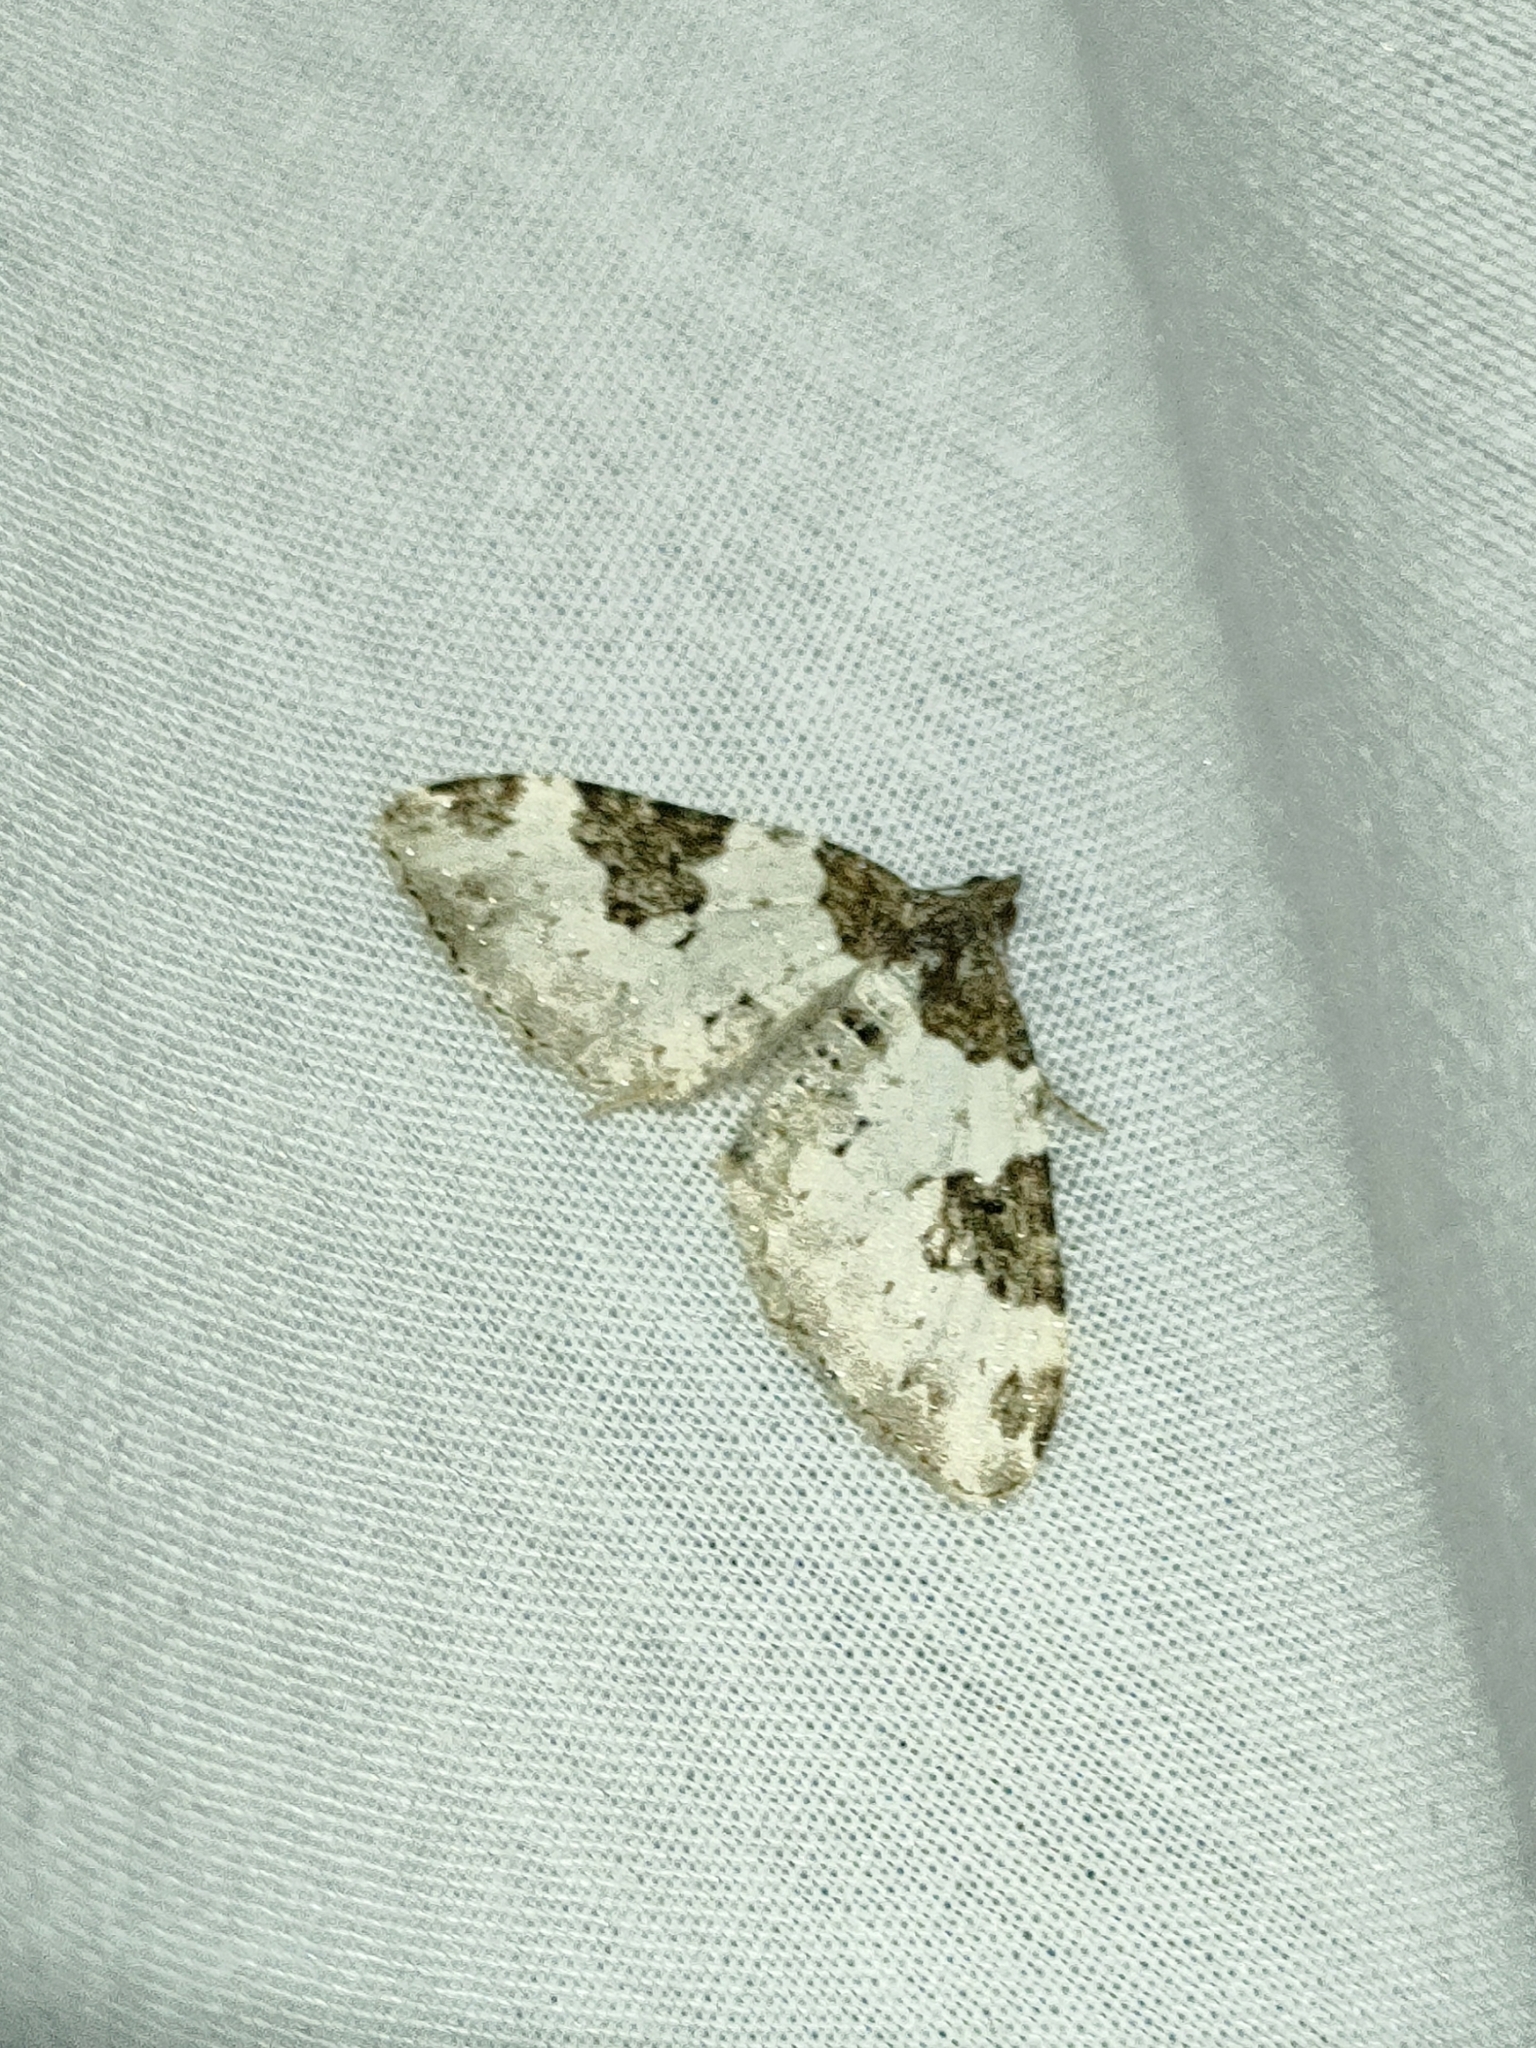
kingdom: Animalia
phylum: Arthropoda
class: Insecta
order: Lepidoptera
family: Geometridae
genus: Xanthorhoe
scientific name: Xanthorhoe fluctuata
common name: Garden carpet
